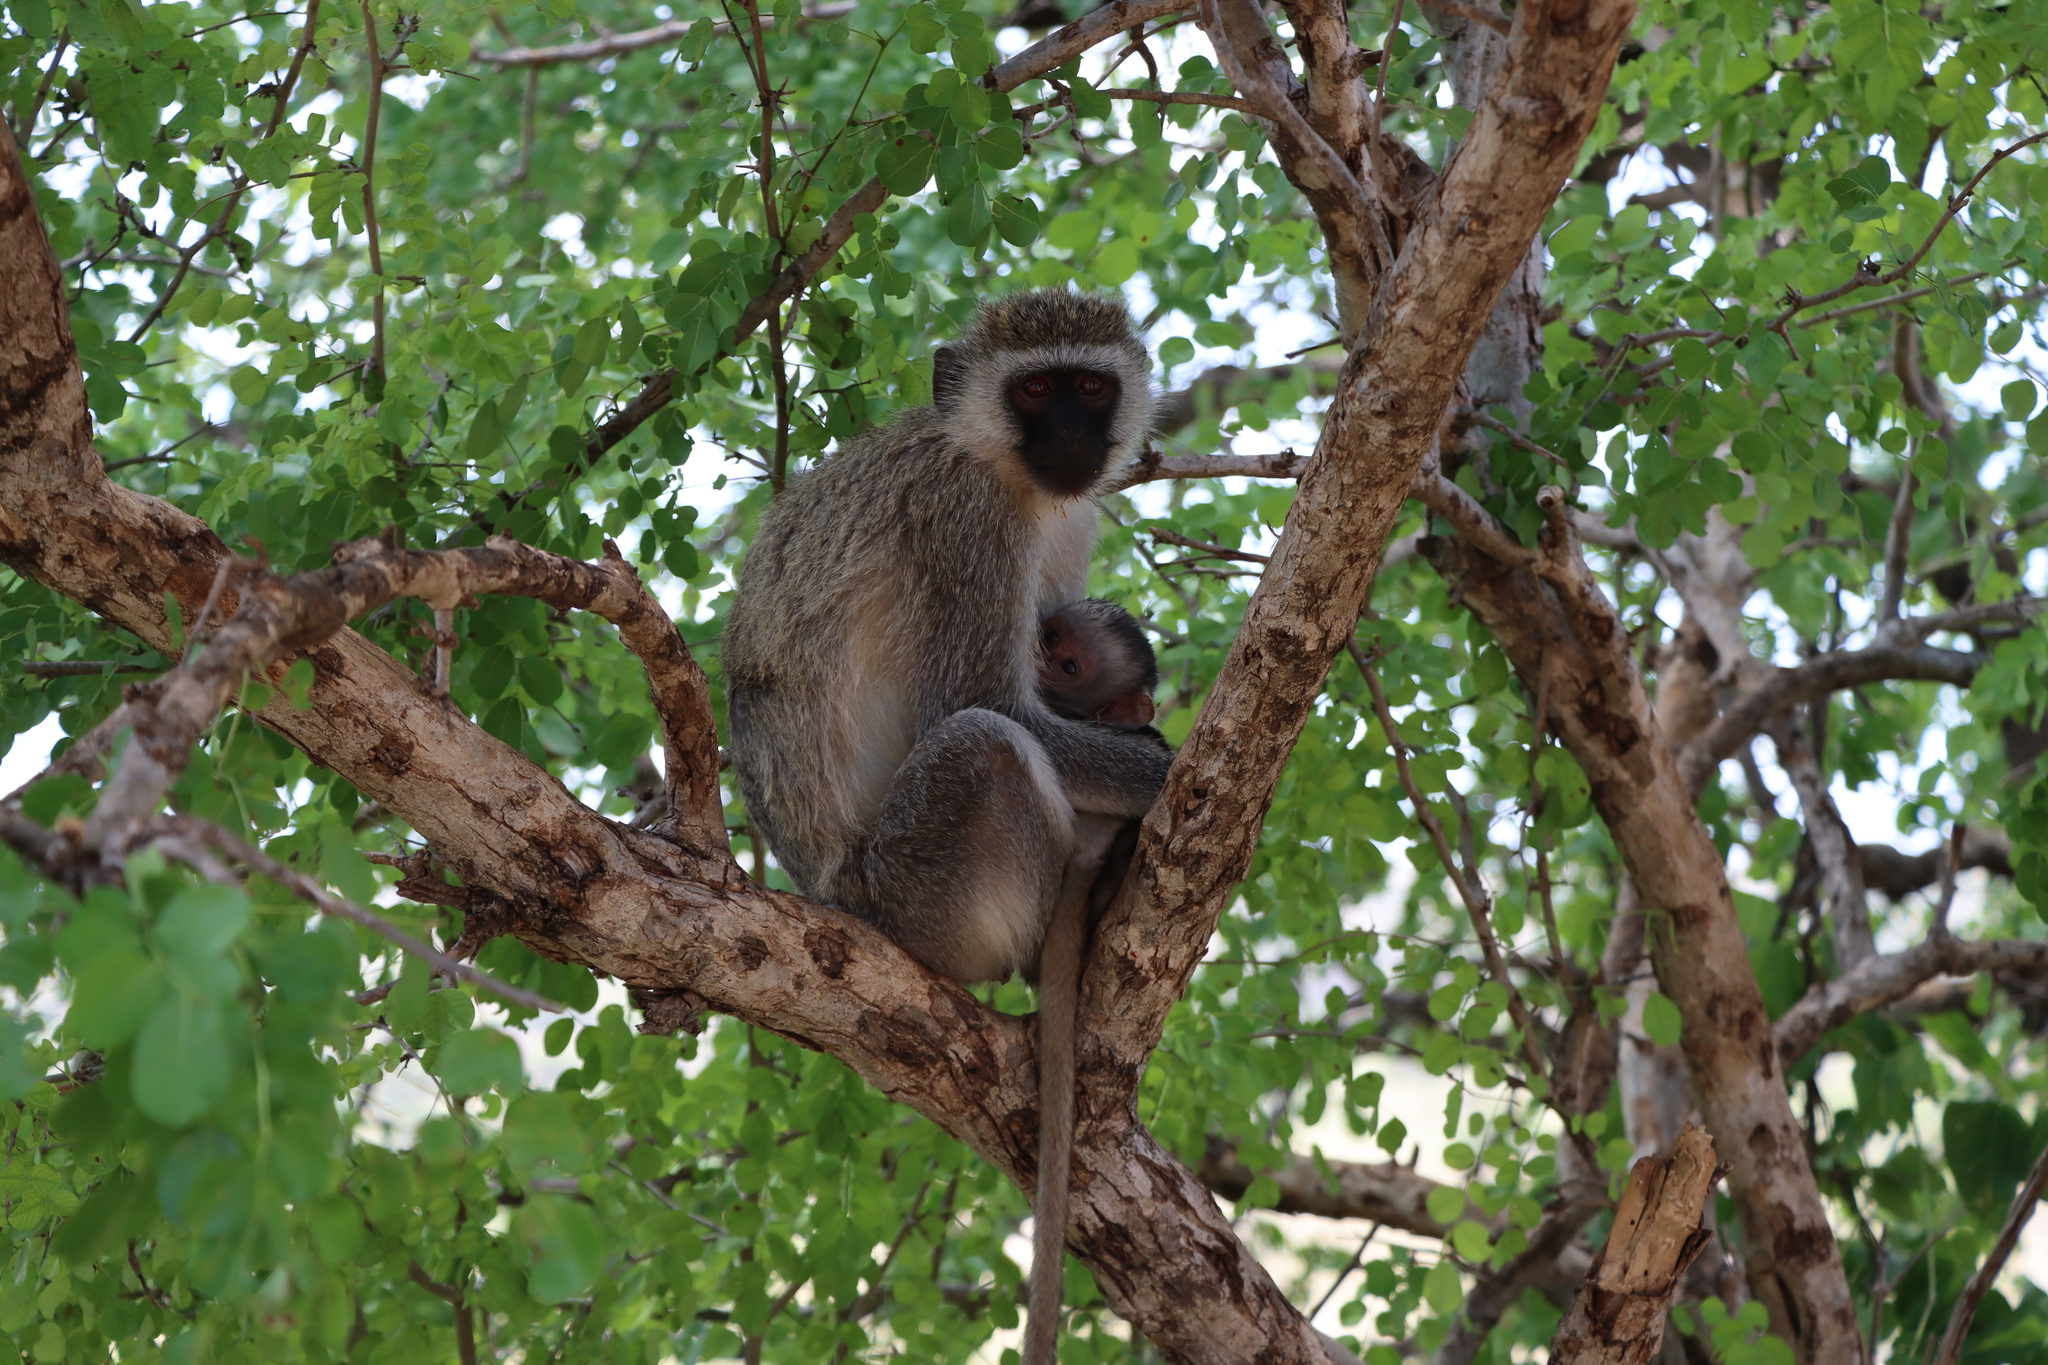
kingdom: Animalia
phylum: Chordata
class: Mammalia
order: Primates
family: Cercopithecidae
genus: Chlorocebus
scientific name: Chlorocebus pygerythrus
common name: Vervet monkey
